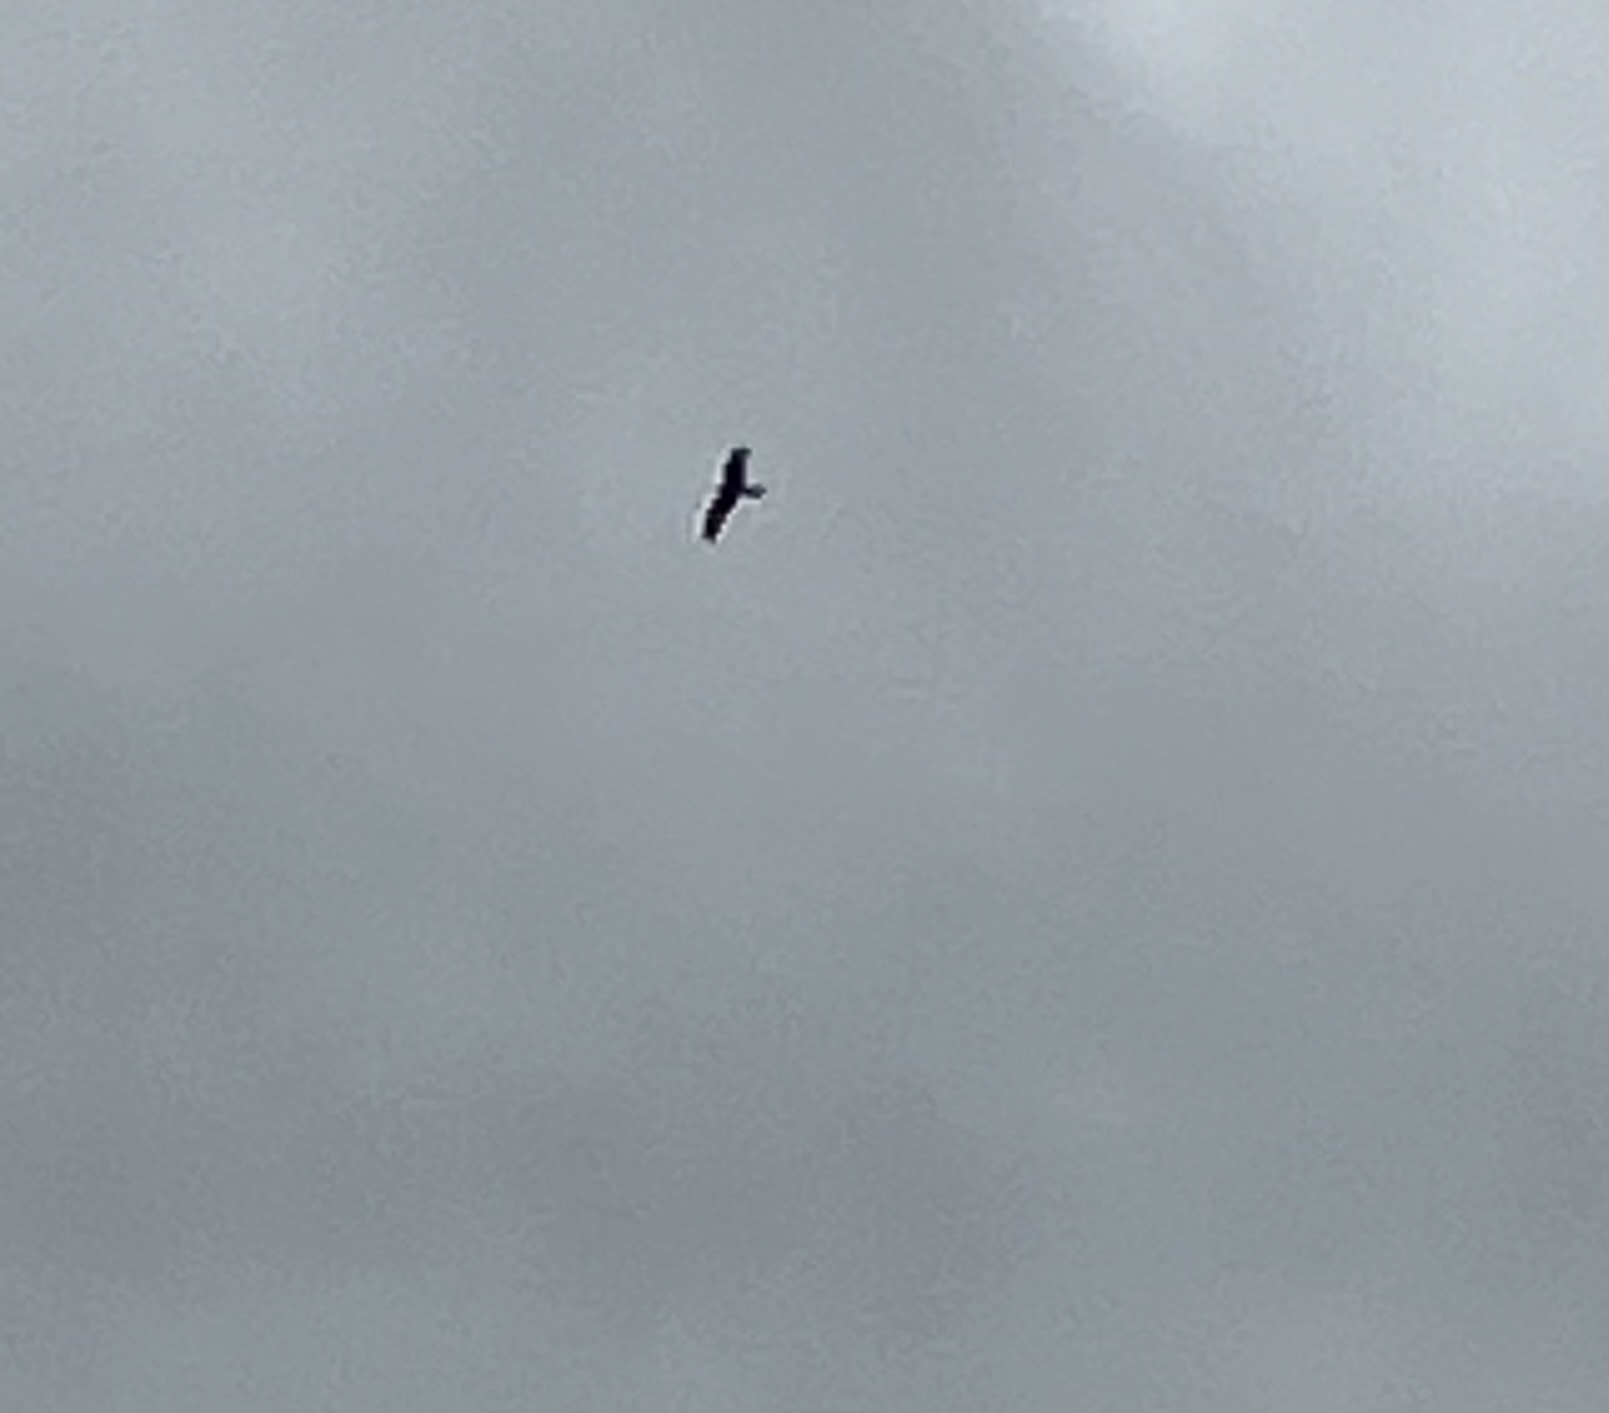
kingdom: Animalia
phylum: Chordata
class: Aves
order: Accipitriformes
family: Accipitridae
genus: Milvus
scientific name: Milvus milvus
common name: Red kite
